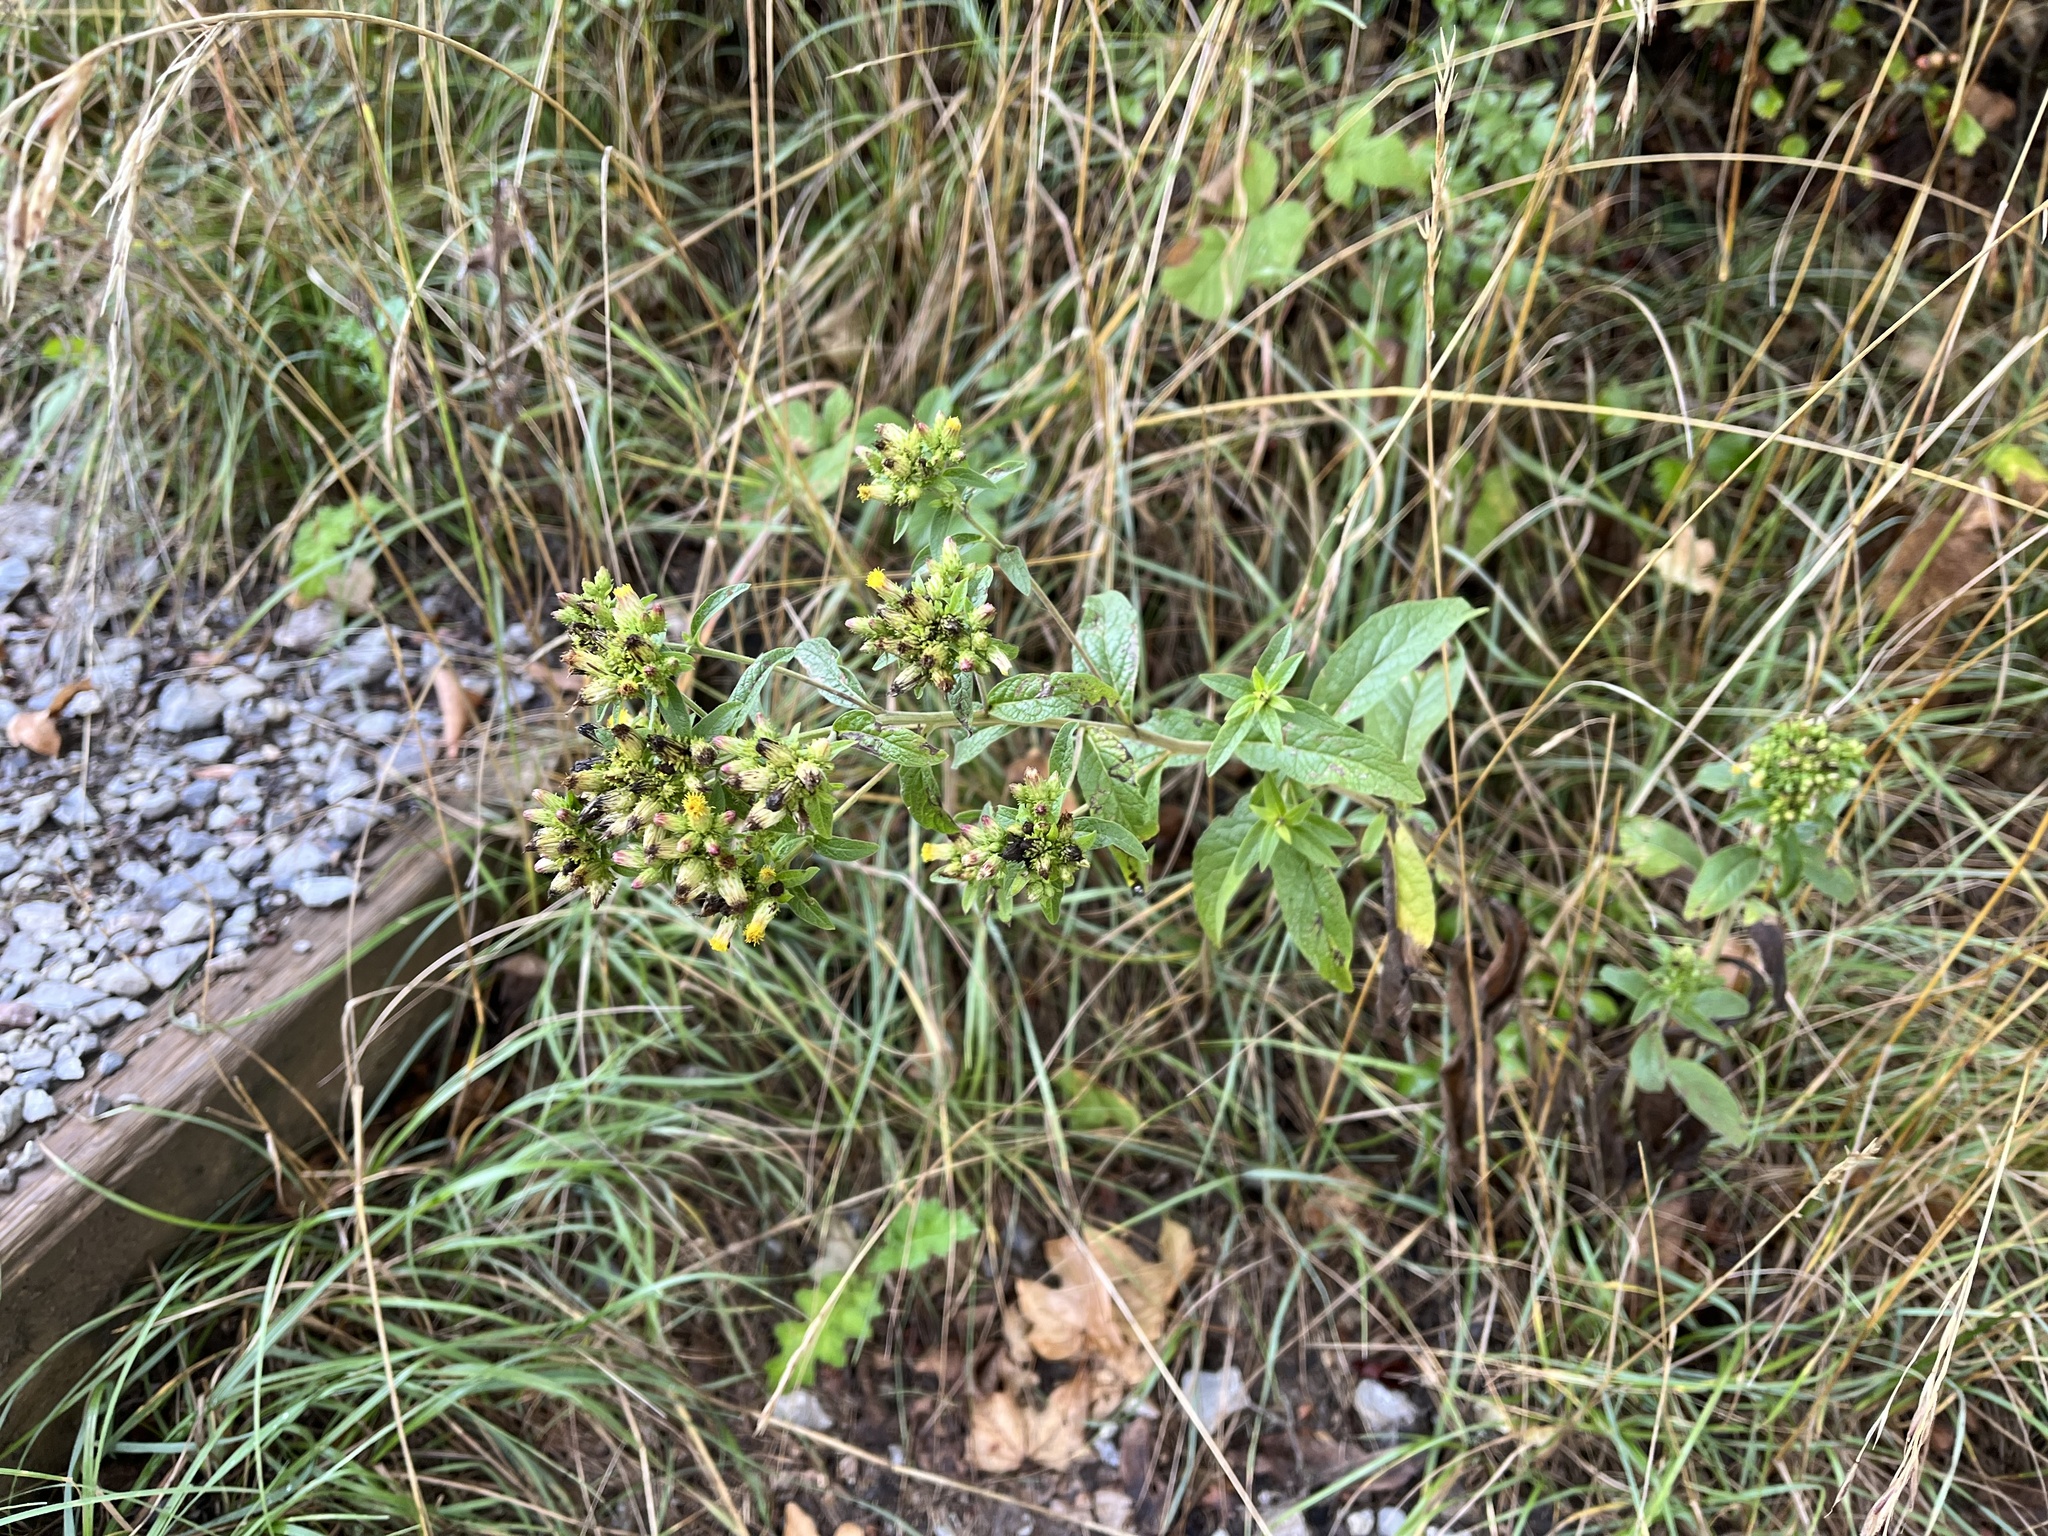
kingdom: Plantae
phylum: Tracheophyta
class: Magnoliopsida
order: Asterales
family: Asteraceae
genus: Pentanema
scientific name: Pentanema squarrosum
